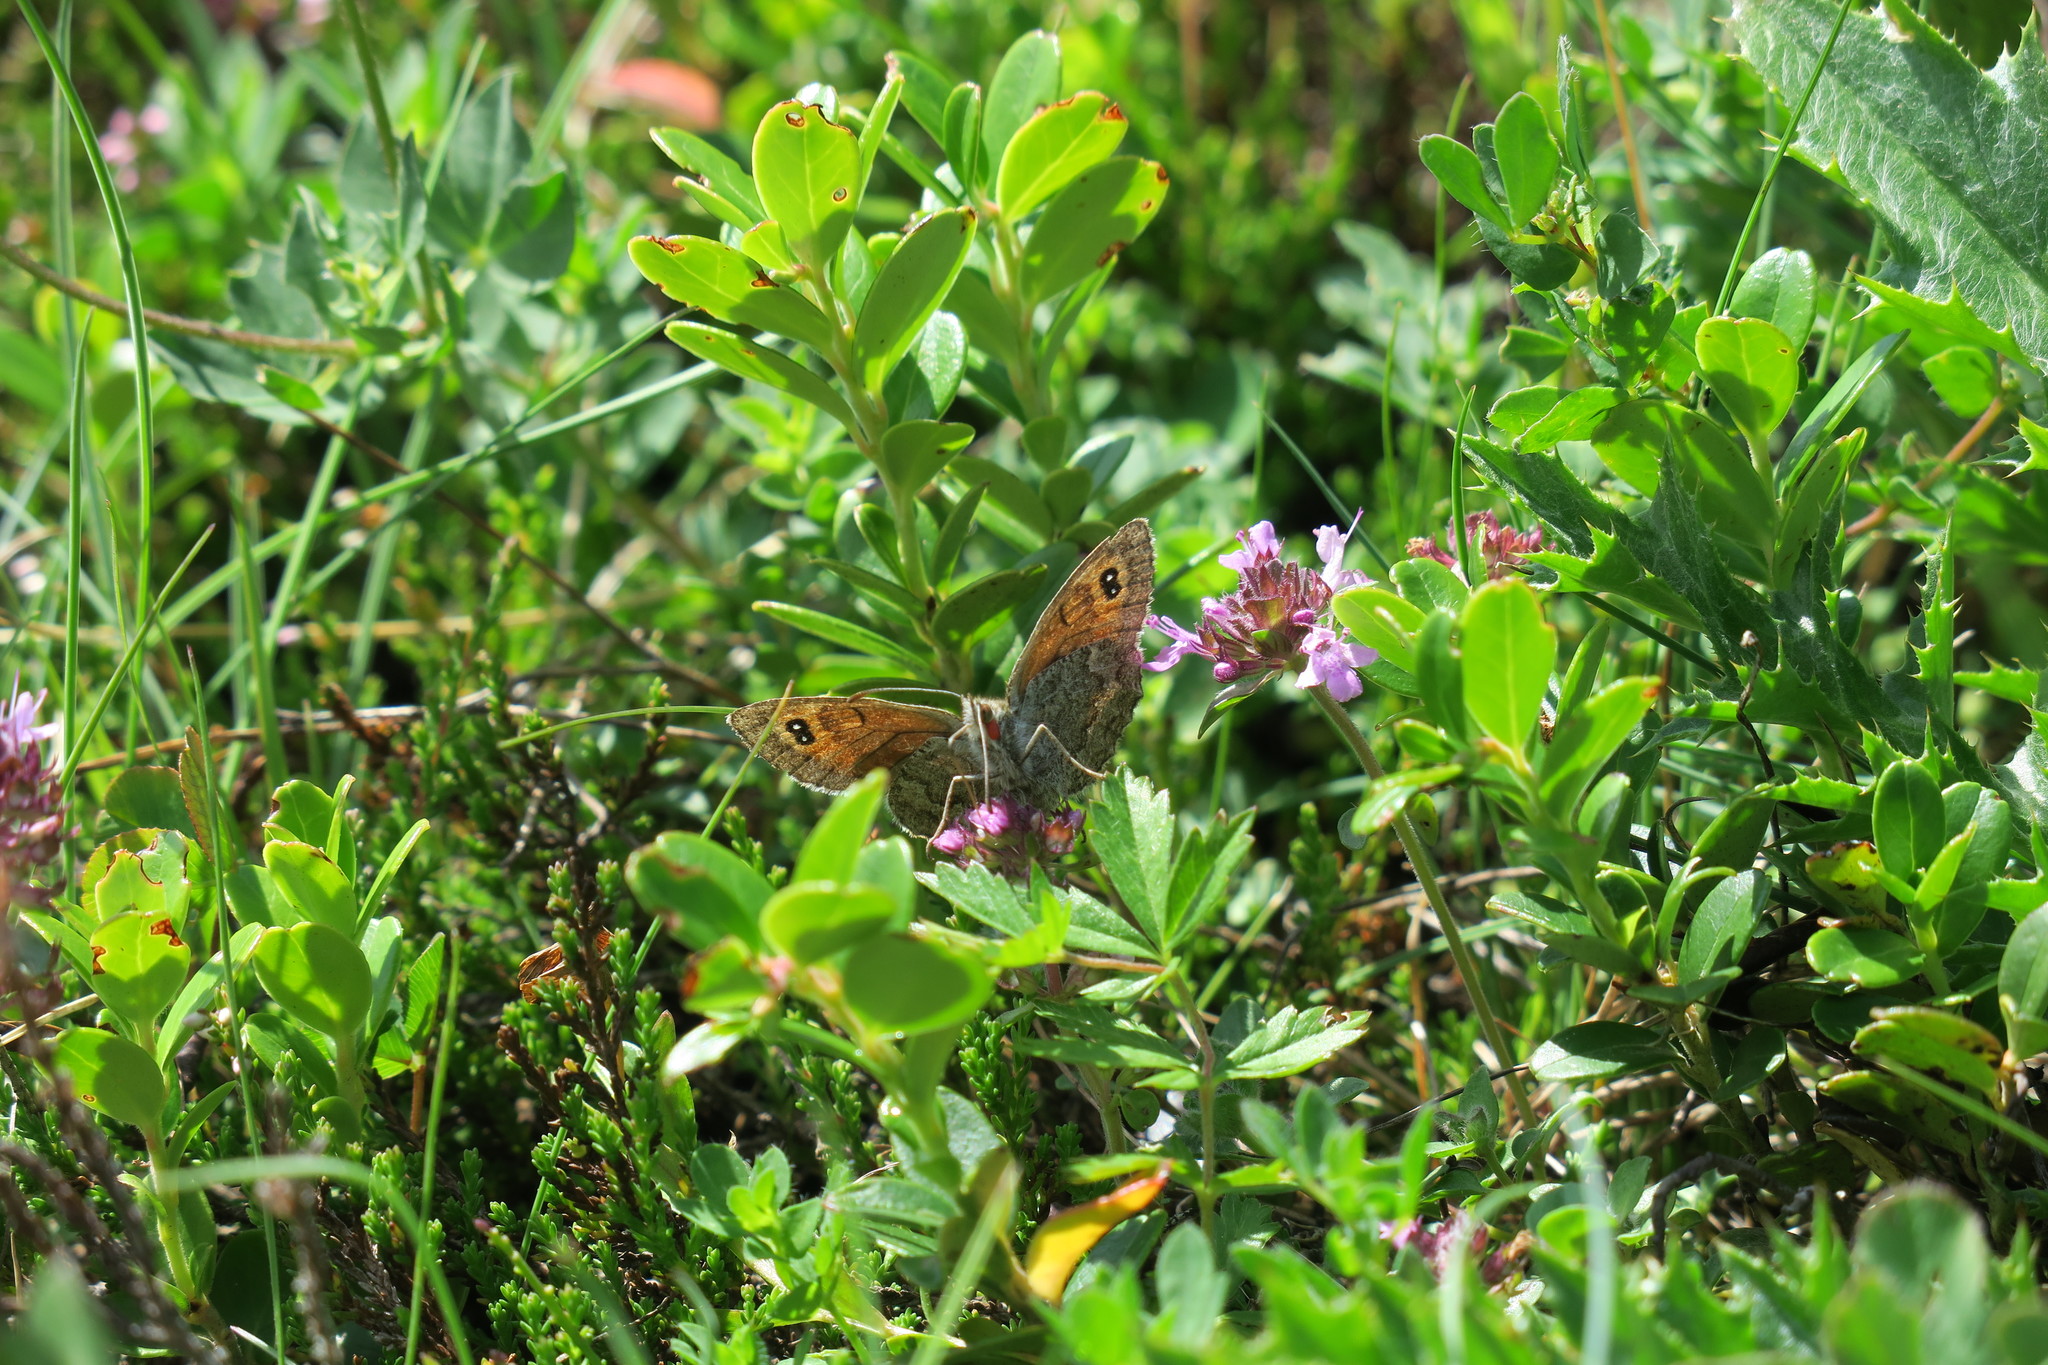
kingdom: Animalia
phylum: Arthropoda
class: Insecta
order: Lepidoptera
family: Nymphalidae
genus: Erebia
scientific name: Erebia cassioides
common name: Common brassy ringlet
